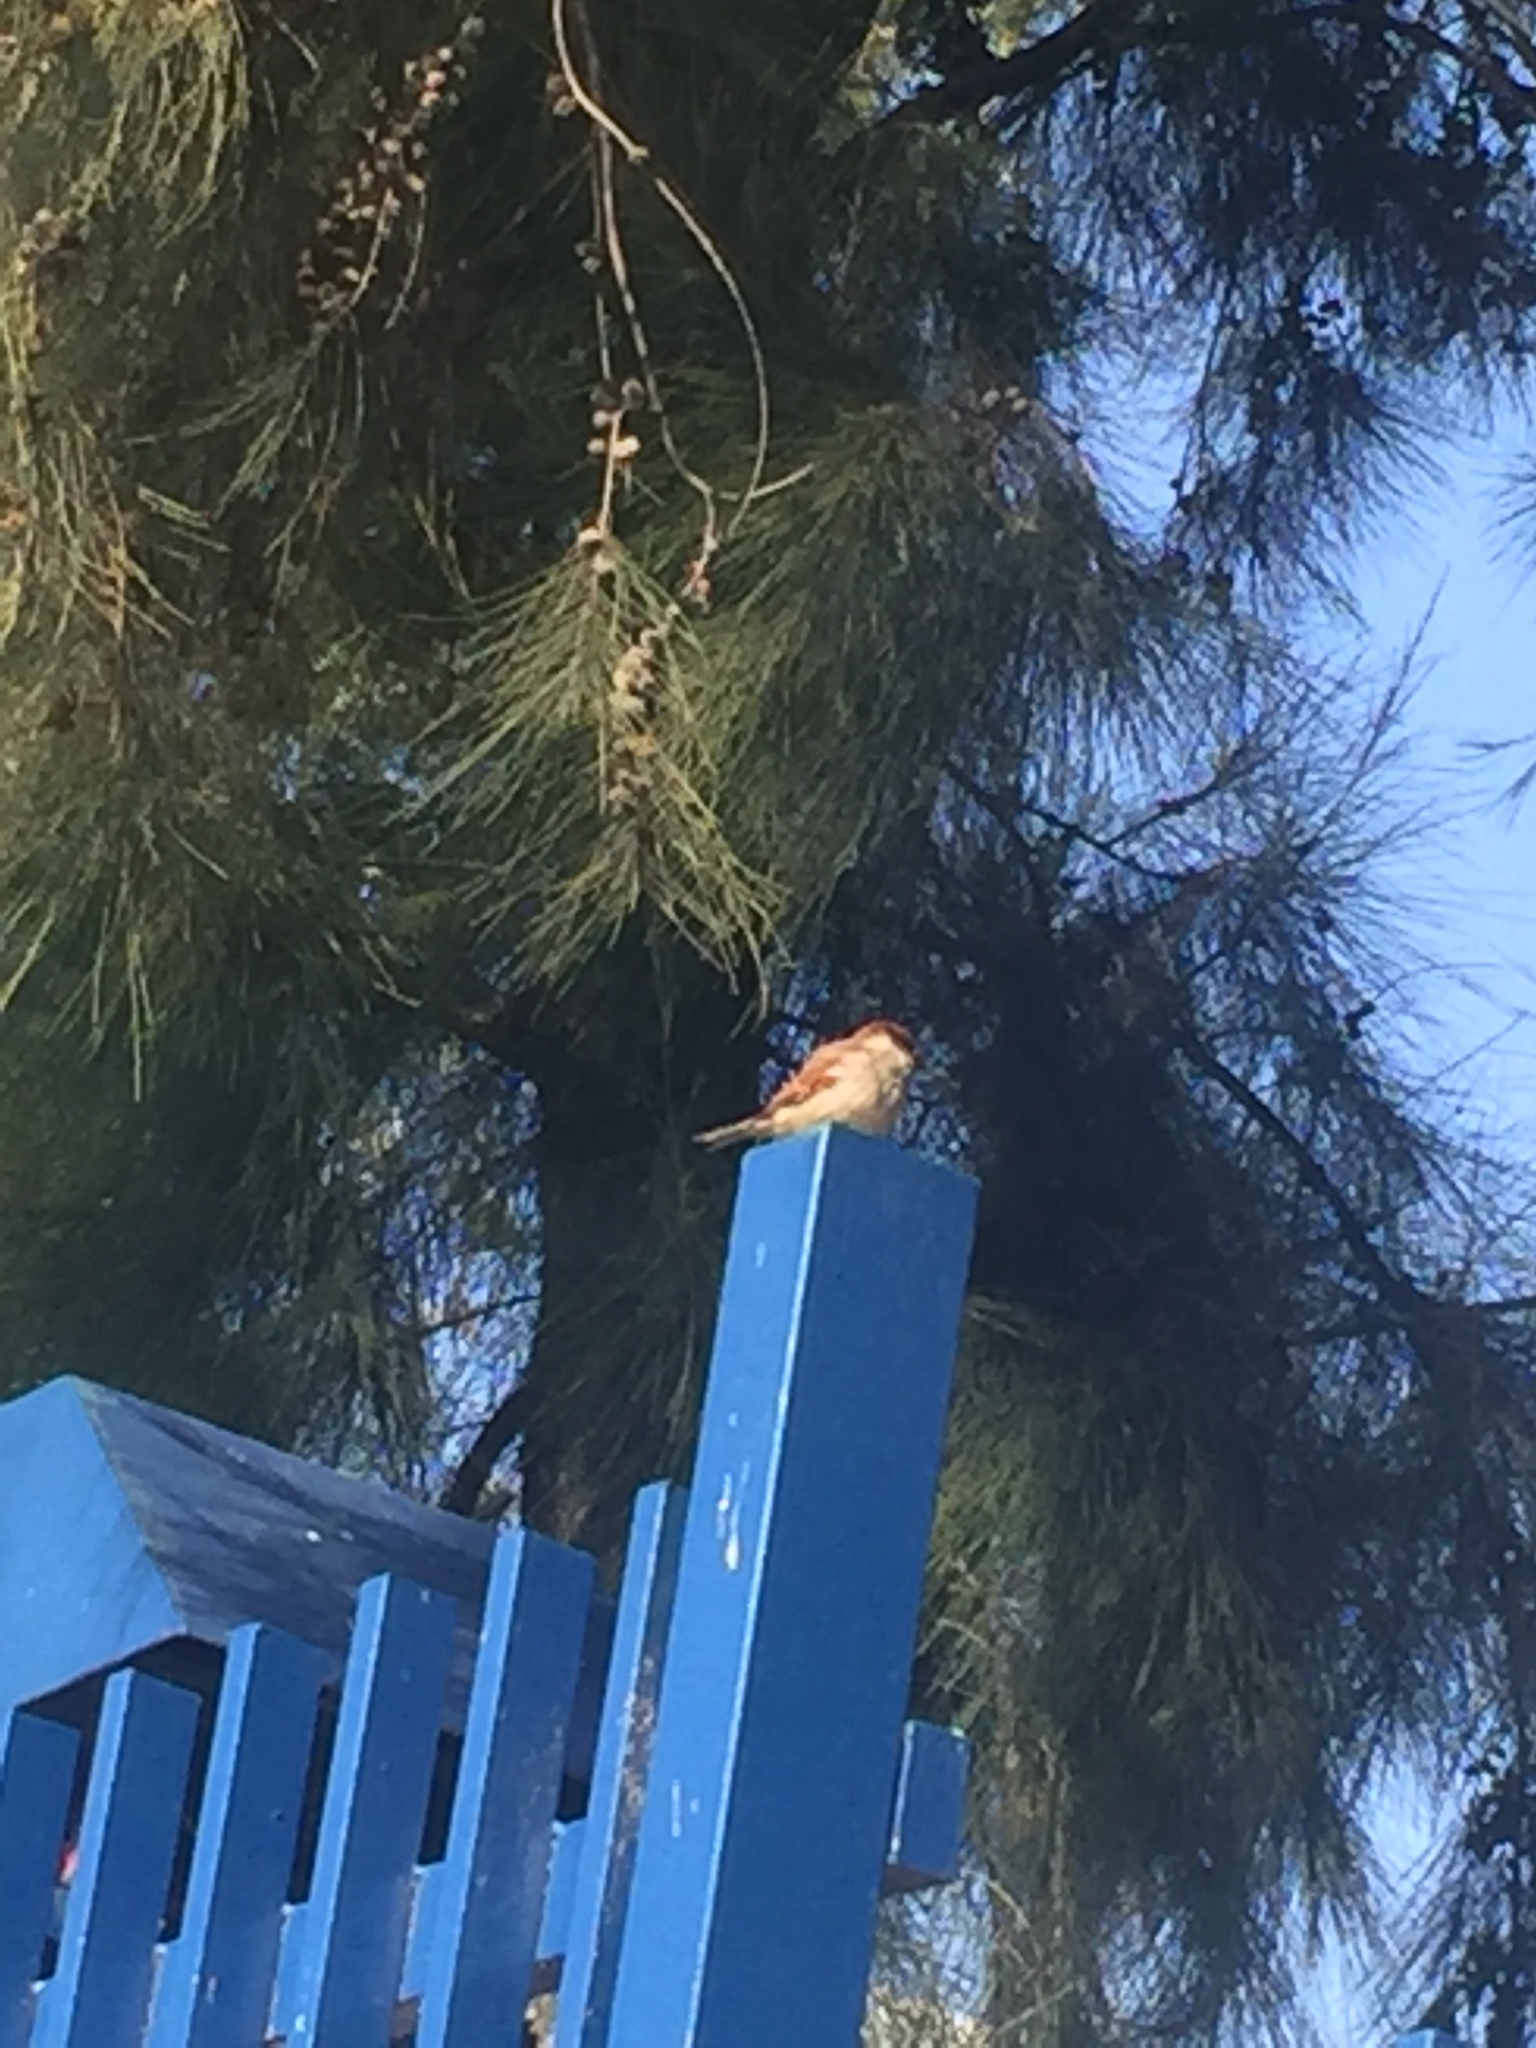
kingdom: Animalia
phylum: Chordata
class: Aves
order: Passeriformes
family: Passeridae
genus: Passer
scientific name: Passer domesticus
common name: House sparrow
